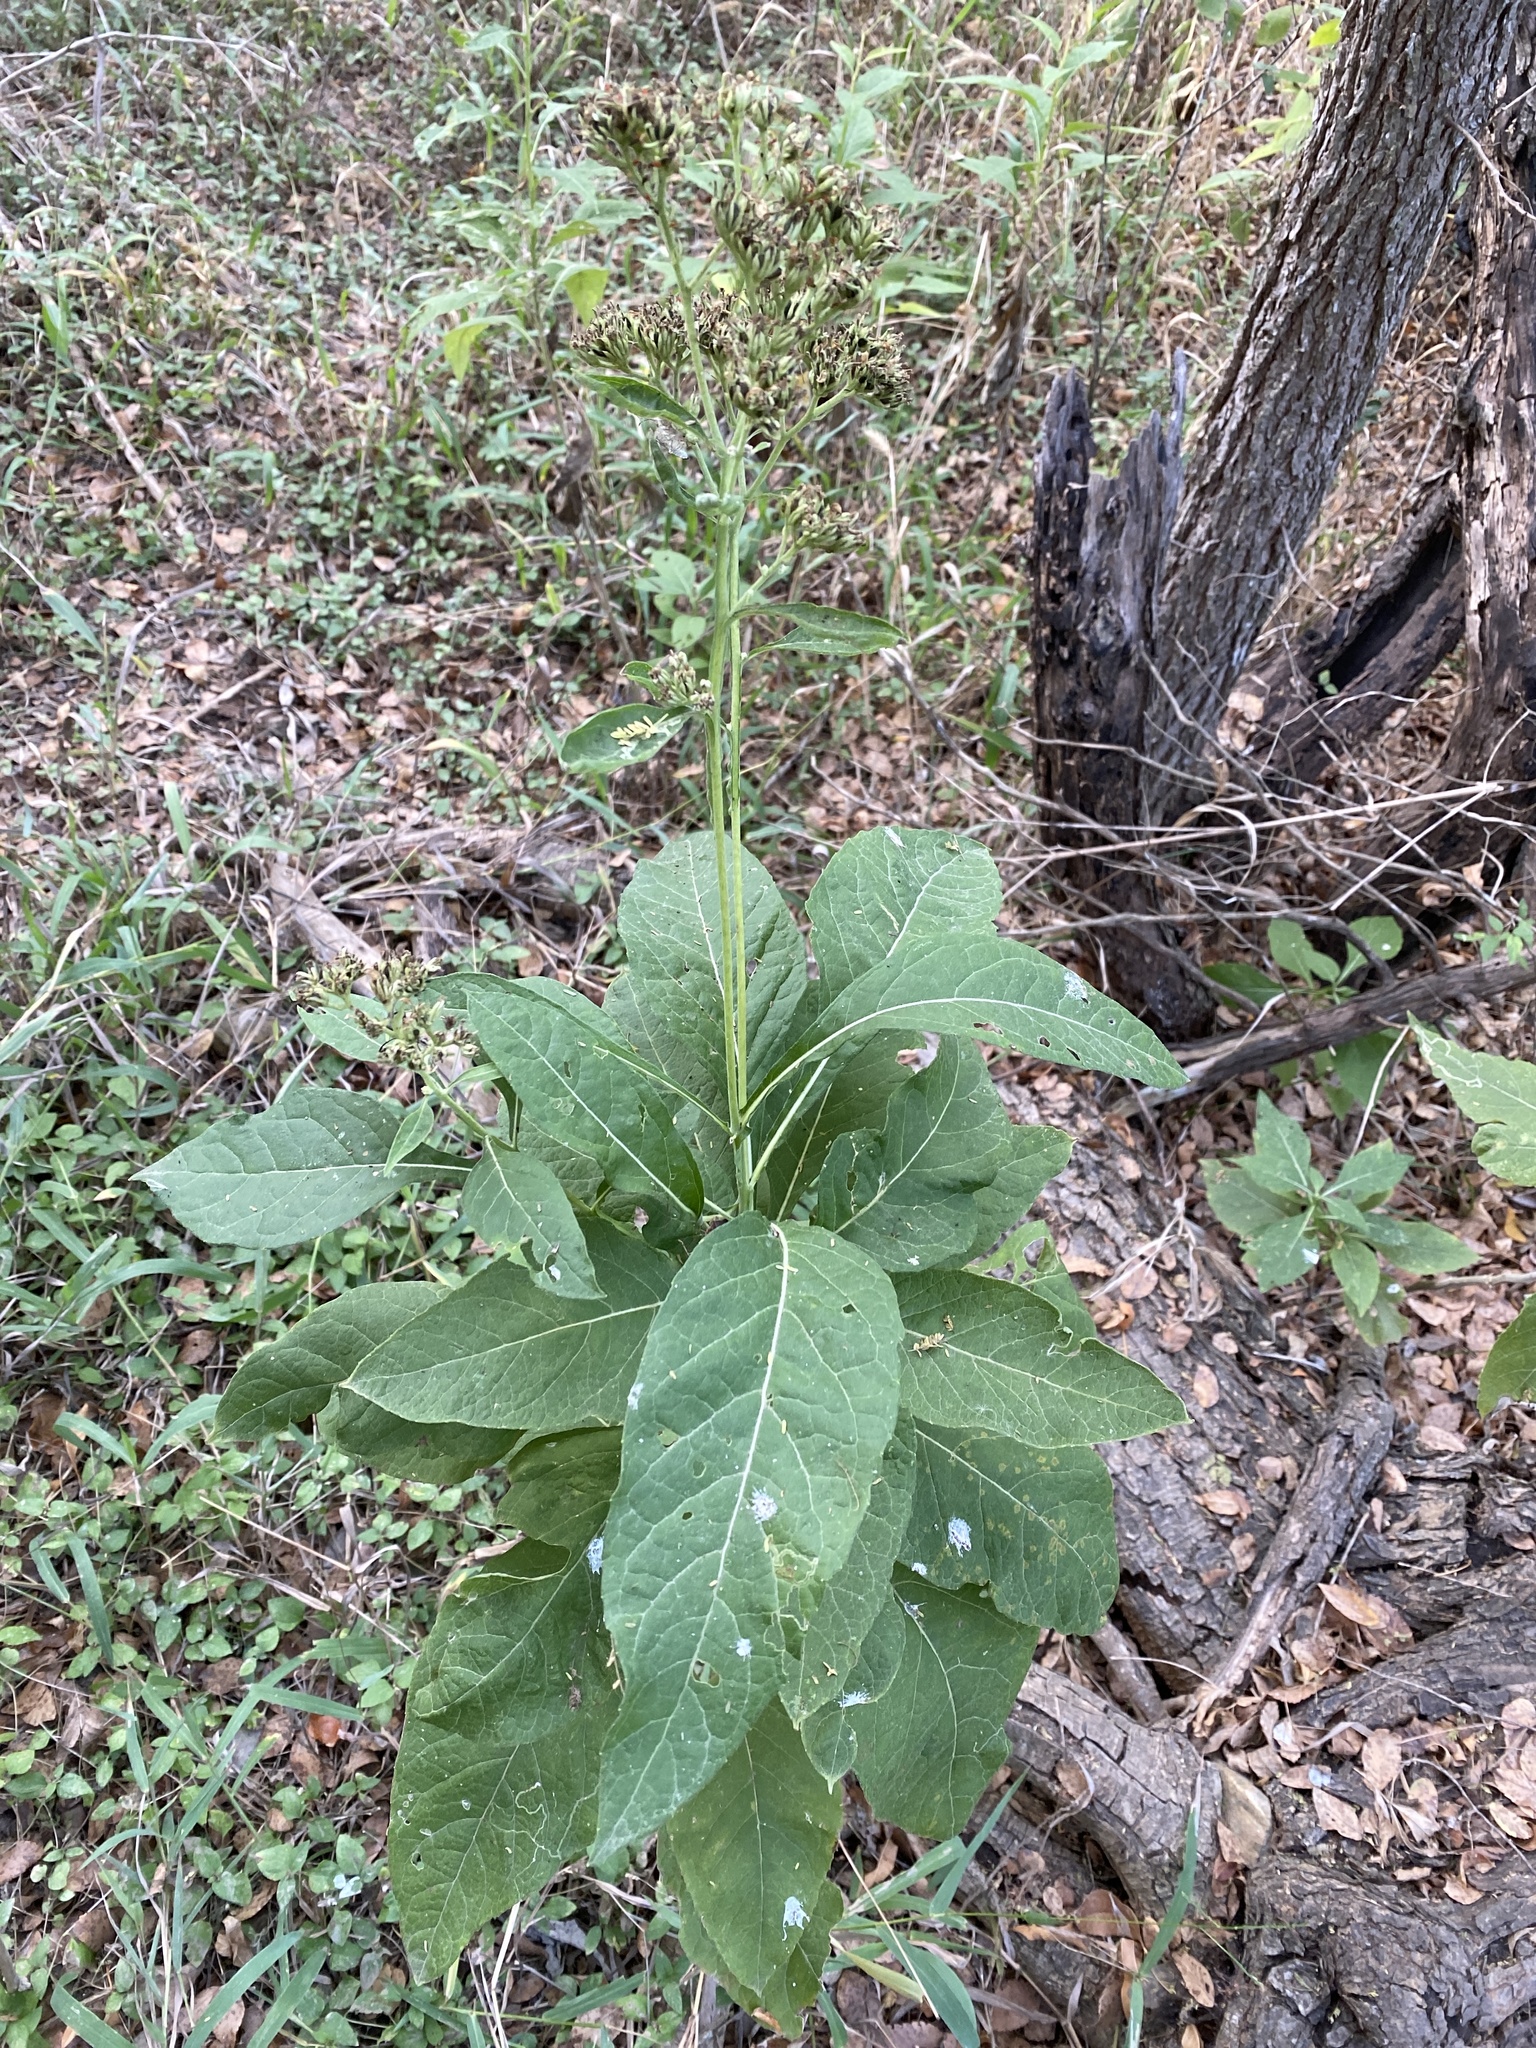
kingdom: Plantae
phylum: Tracheophyta
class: Magnoliopsida
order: Asterales
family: Asteraceae
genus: Verbesina
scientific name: Verbesina virginica
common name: Frostweed
